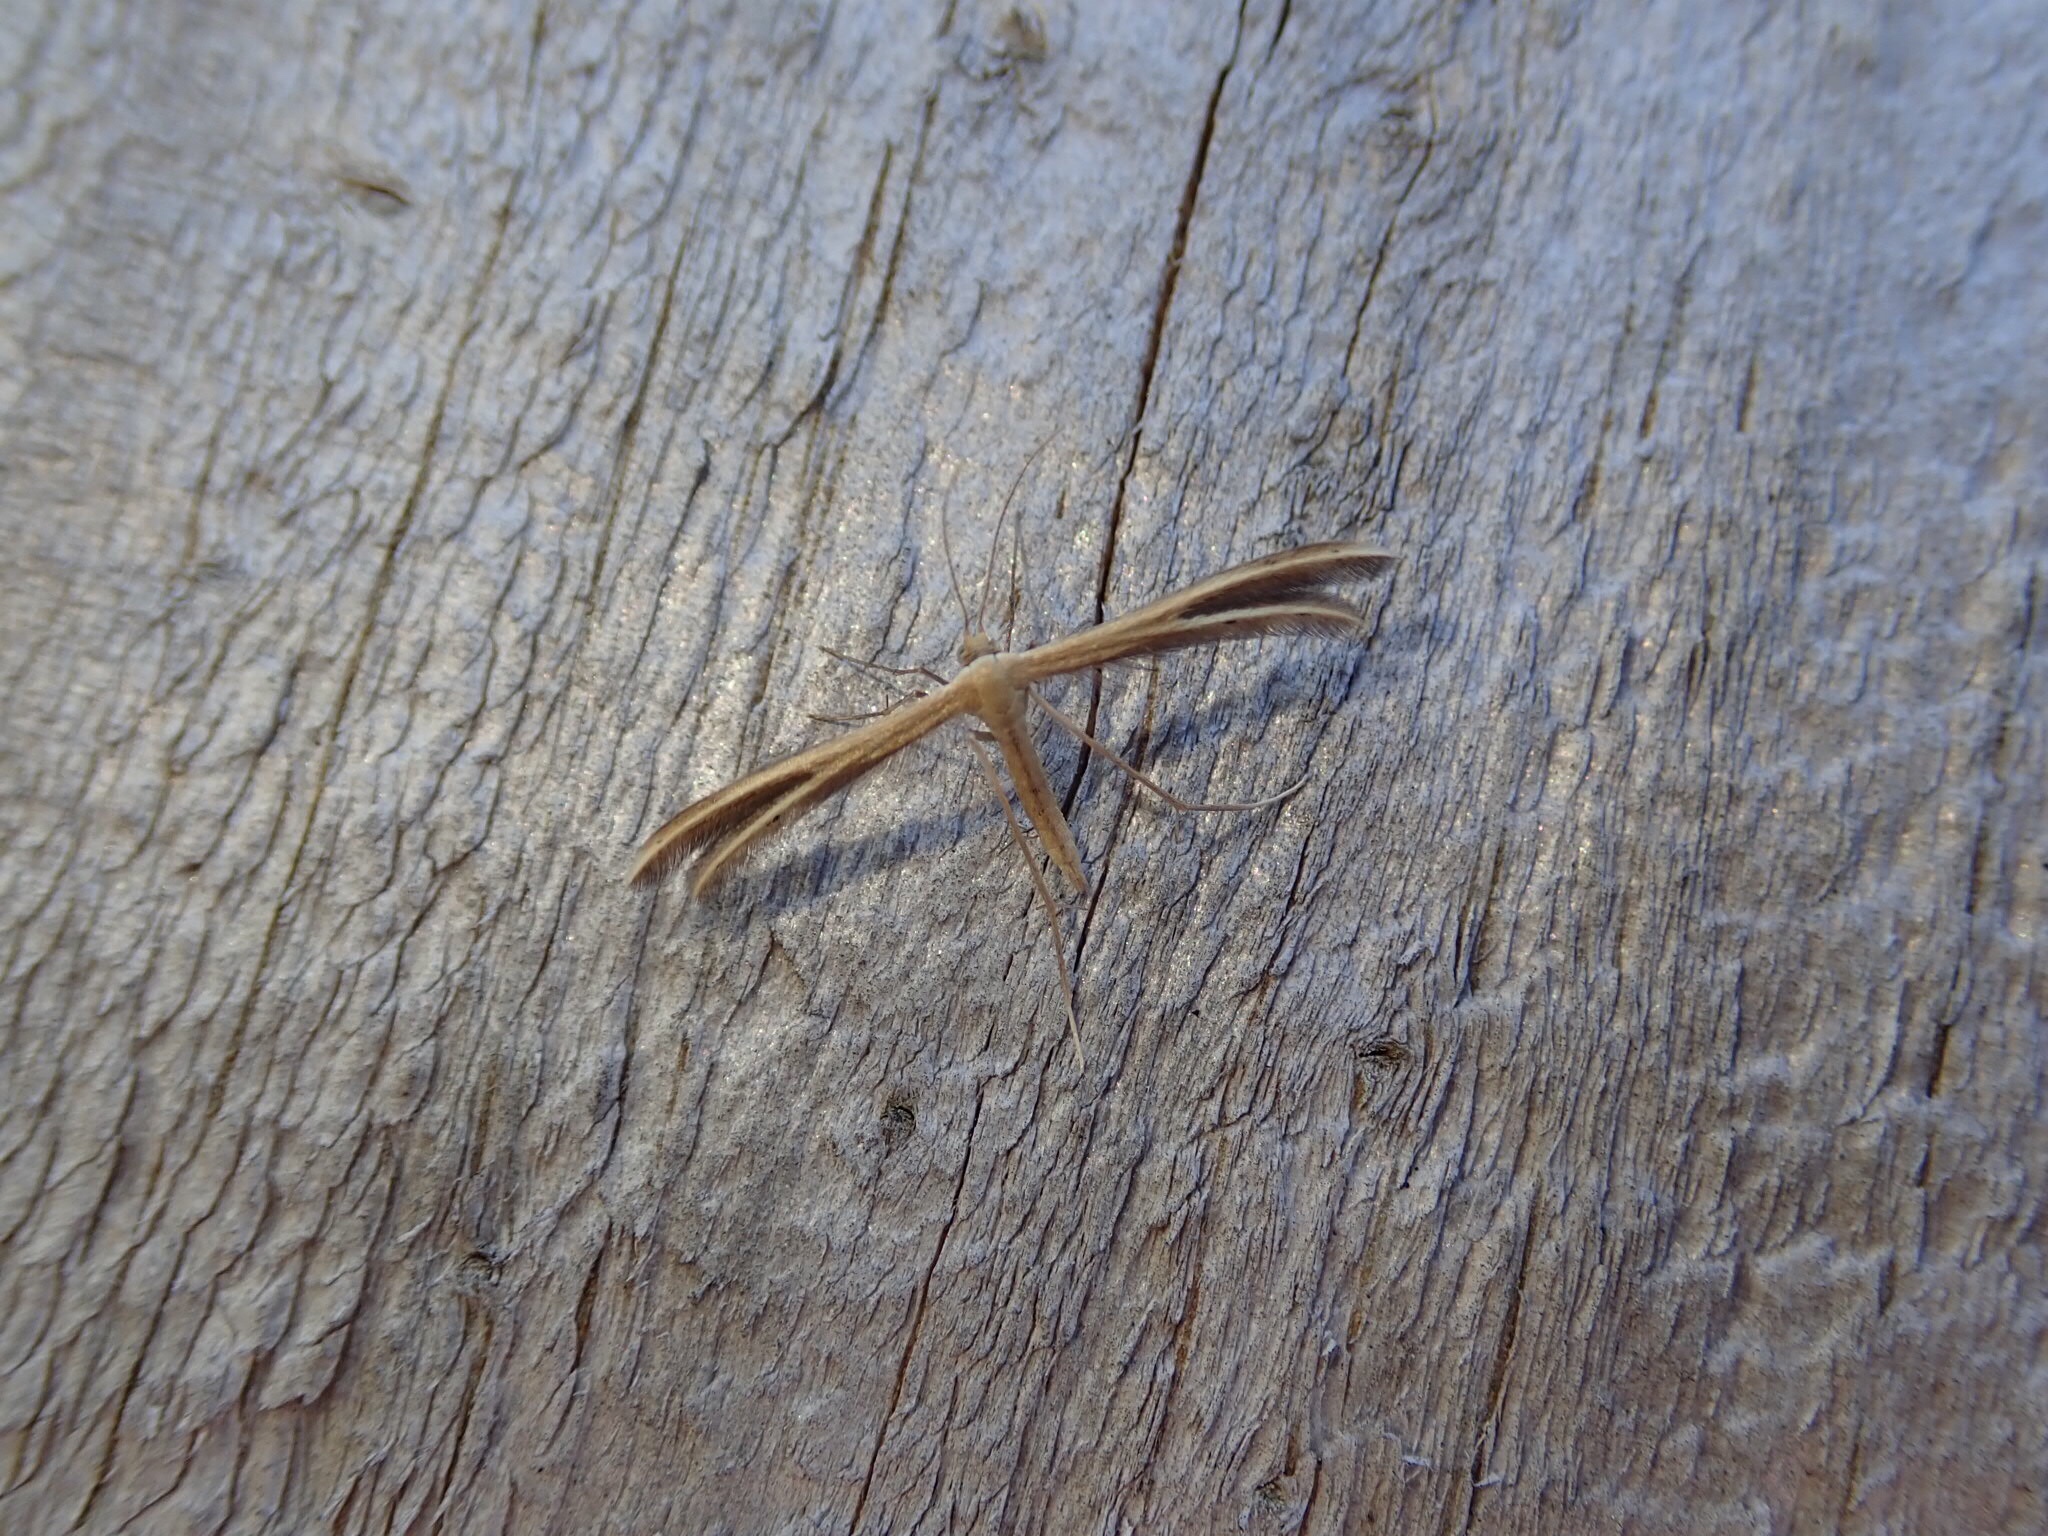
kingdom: Animalia
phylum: Arthropoda
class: Insecta
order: Lepidoptera
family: Pterophoridae
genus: Pterophorus
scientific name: Pterophorus innotatalis
